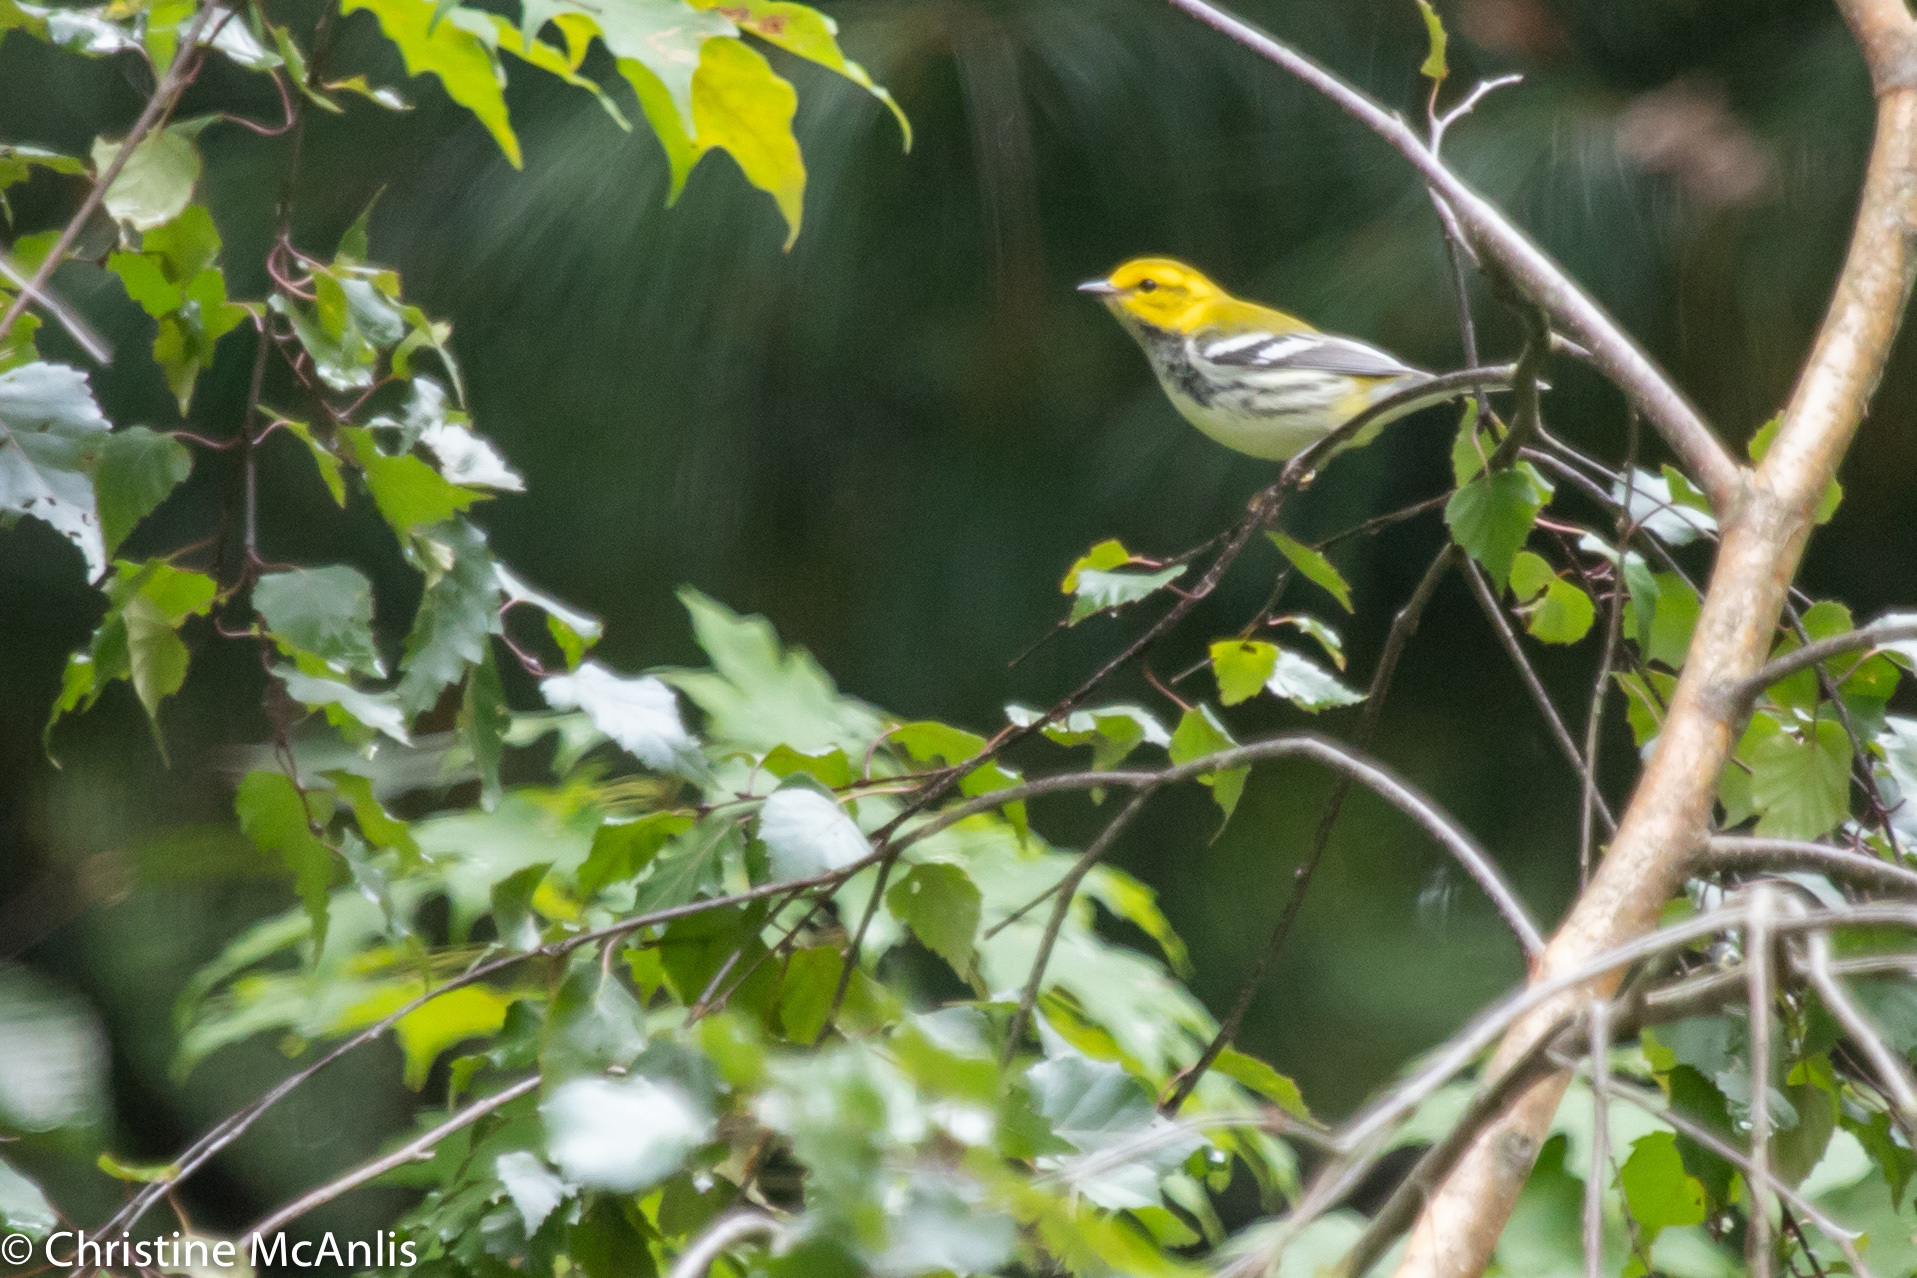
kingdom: Animalia
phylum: Chordata
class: Aves
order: Passeriformes
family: Parulidae
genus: Setophaga
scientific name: Setophaga virens
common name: Black-throated green warbler
